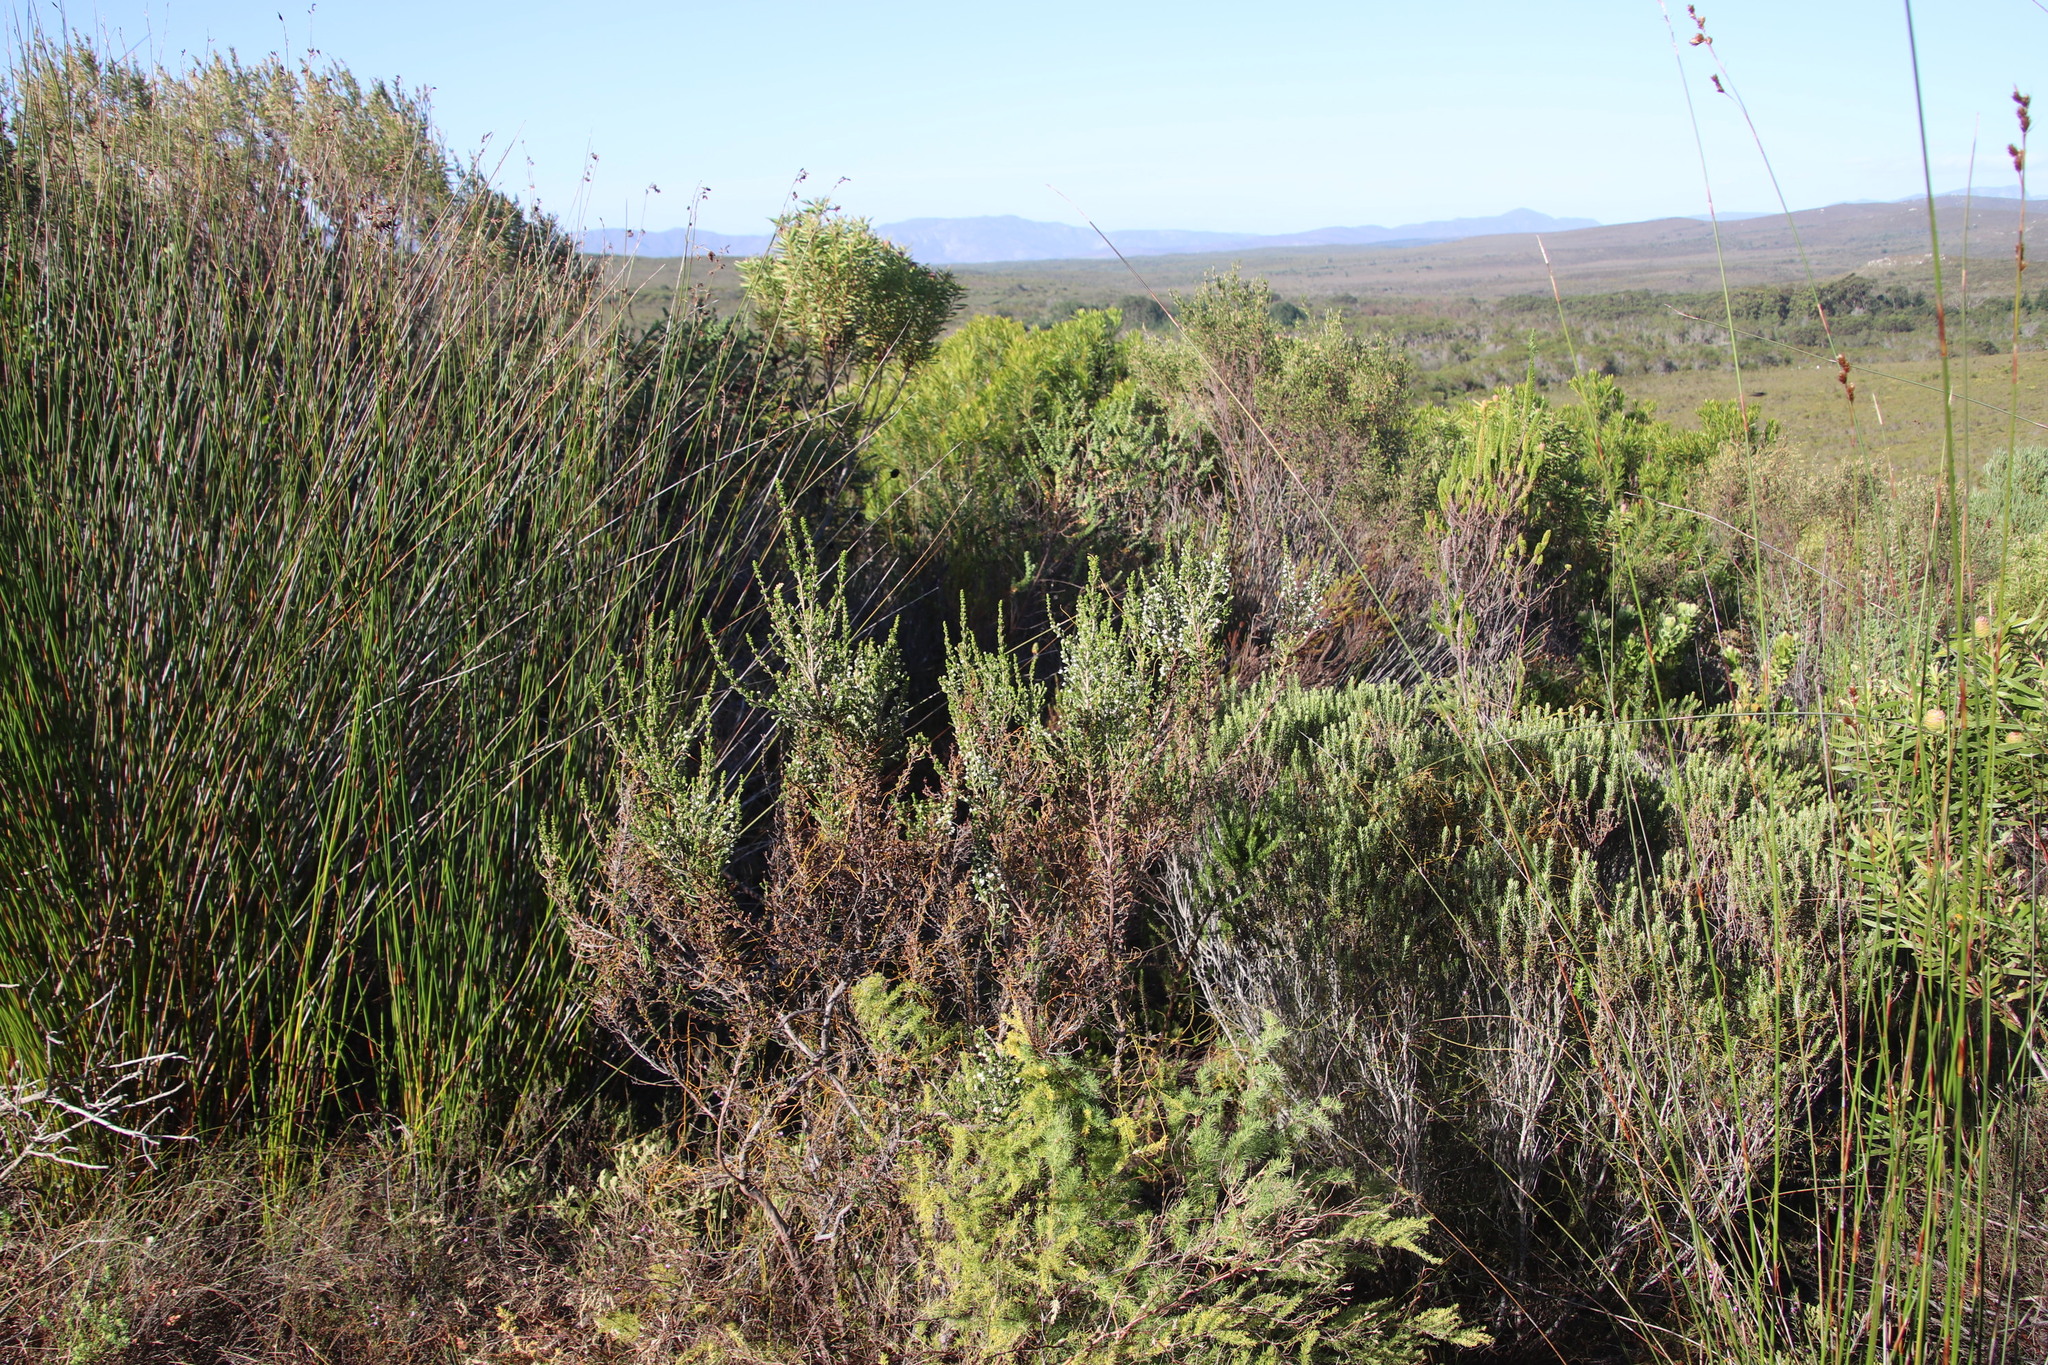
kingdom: Plantae
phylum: Tracheophyta
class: Magnoliopsida
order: Ericales
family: Ericaceae
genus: Erica
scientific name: Erica imbricata
